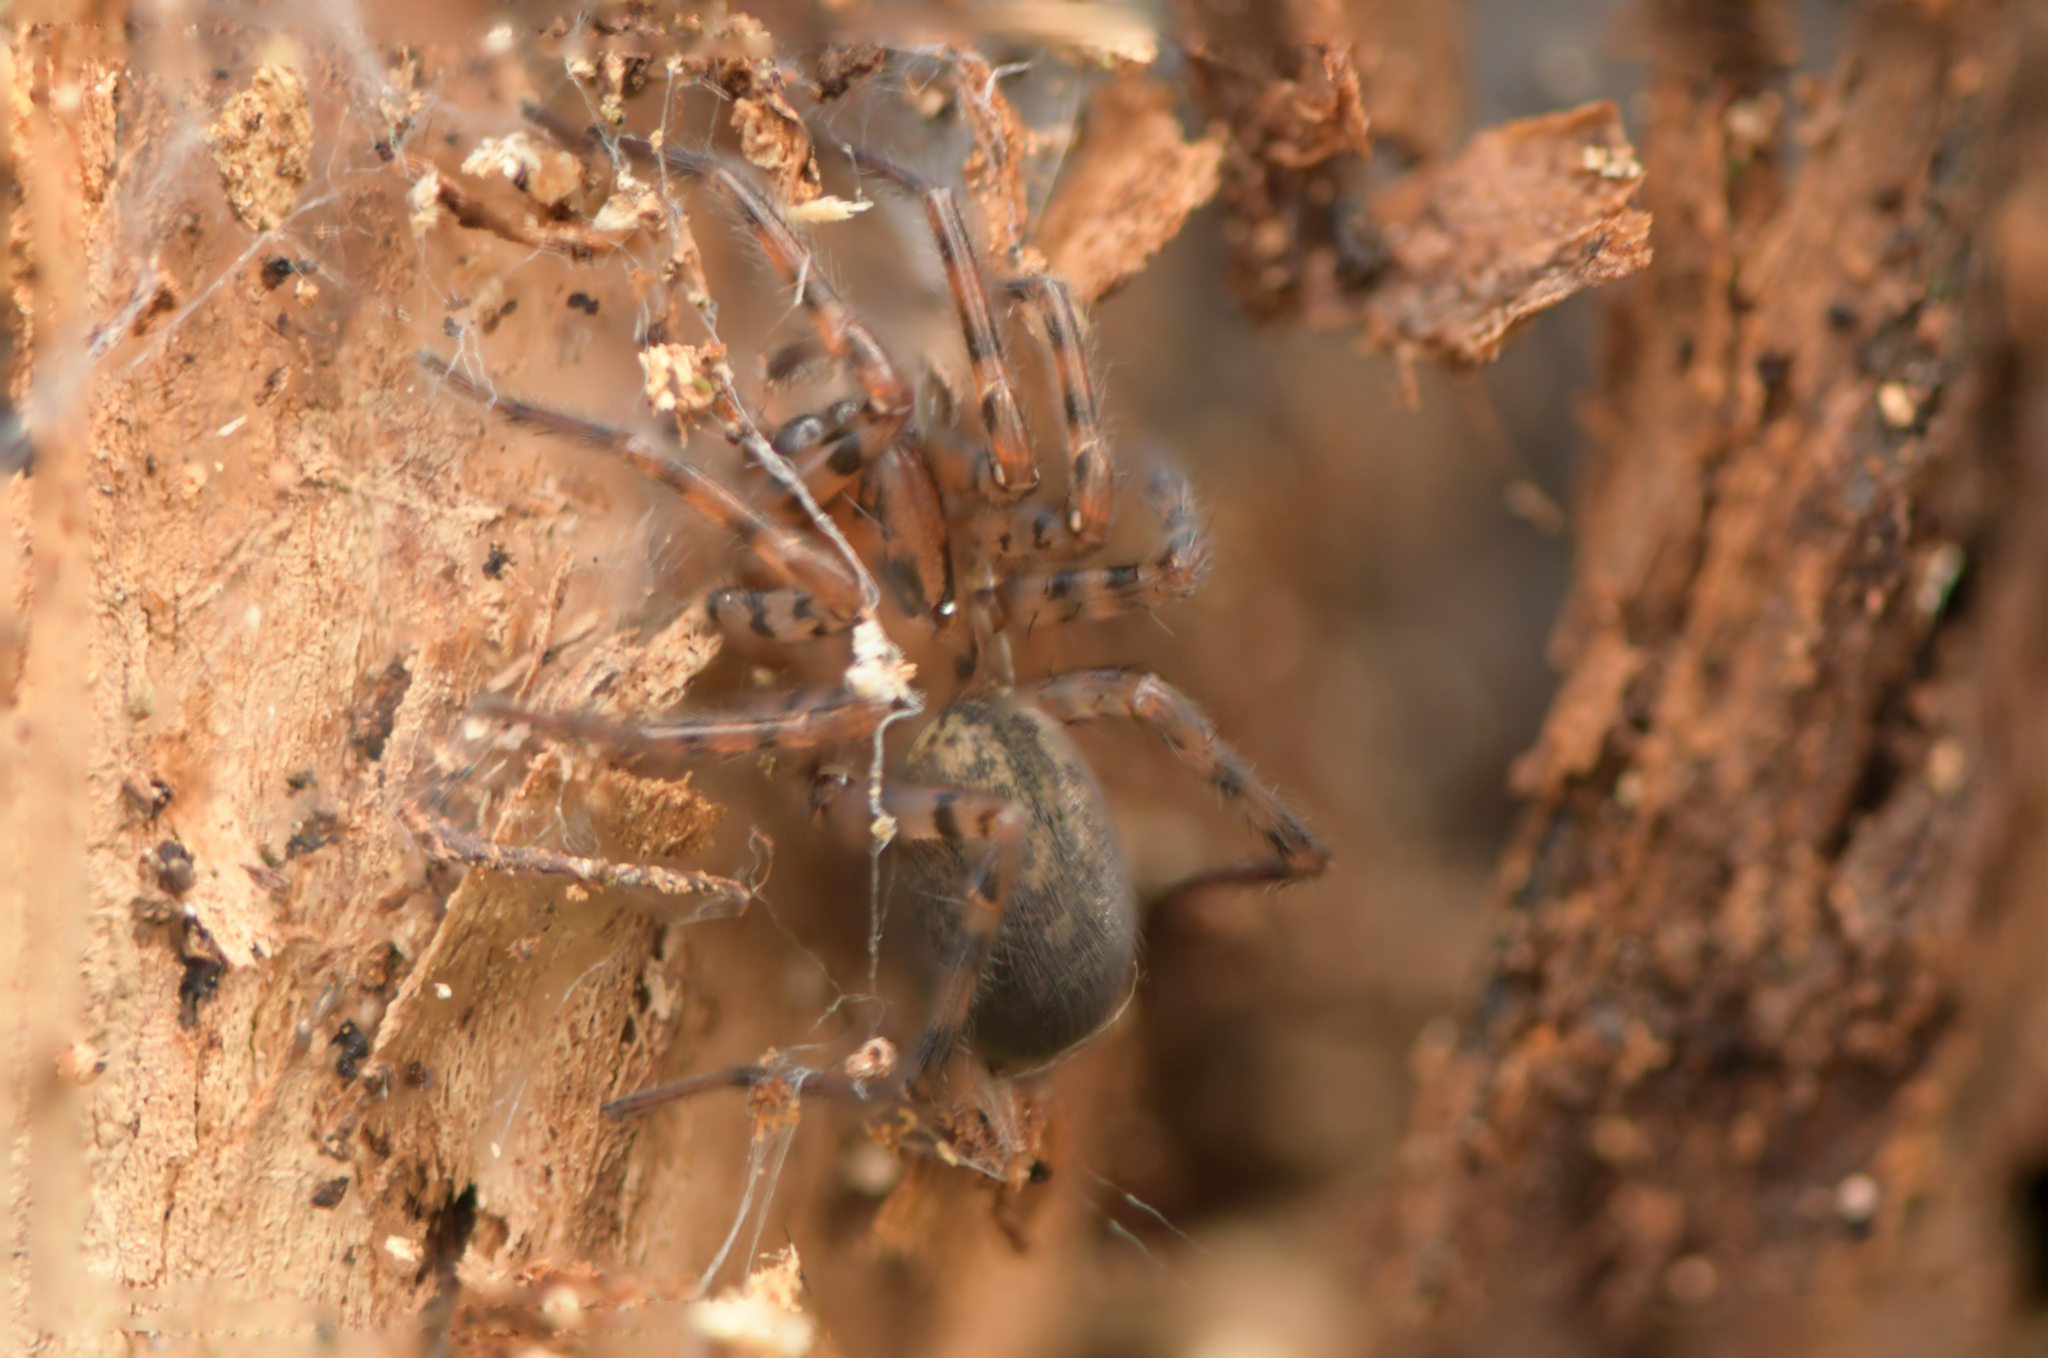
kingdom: Animalia
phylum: Arthropoda
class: Arachnida
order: Araneae
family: Agelenidae
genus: Coras
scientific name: Coras
